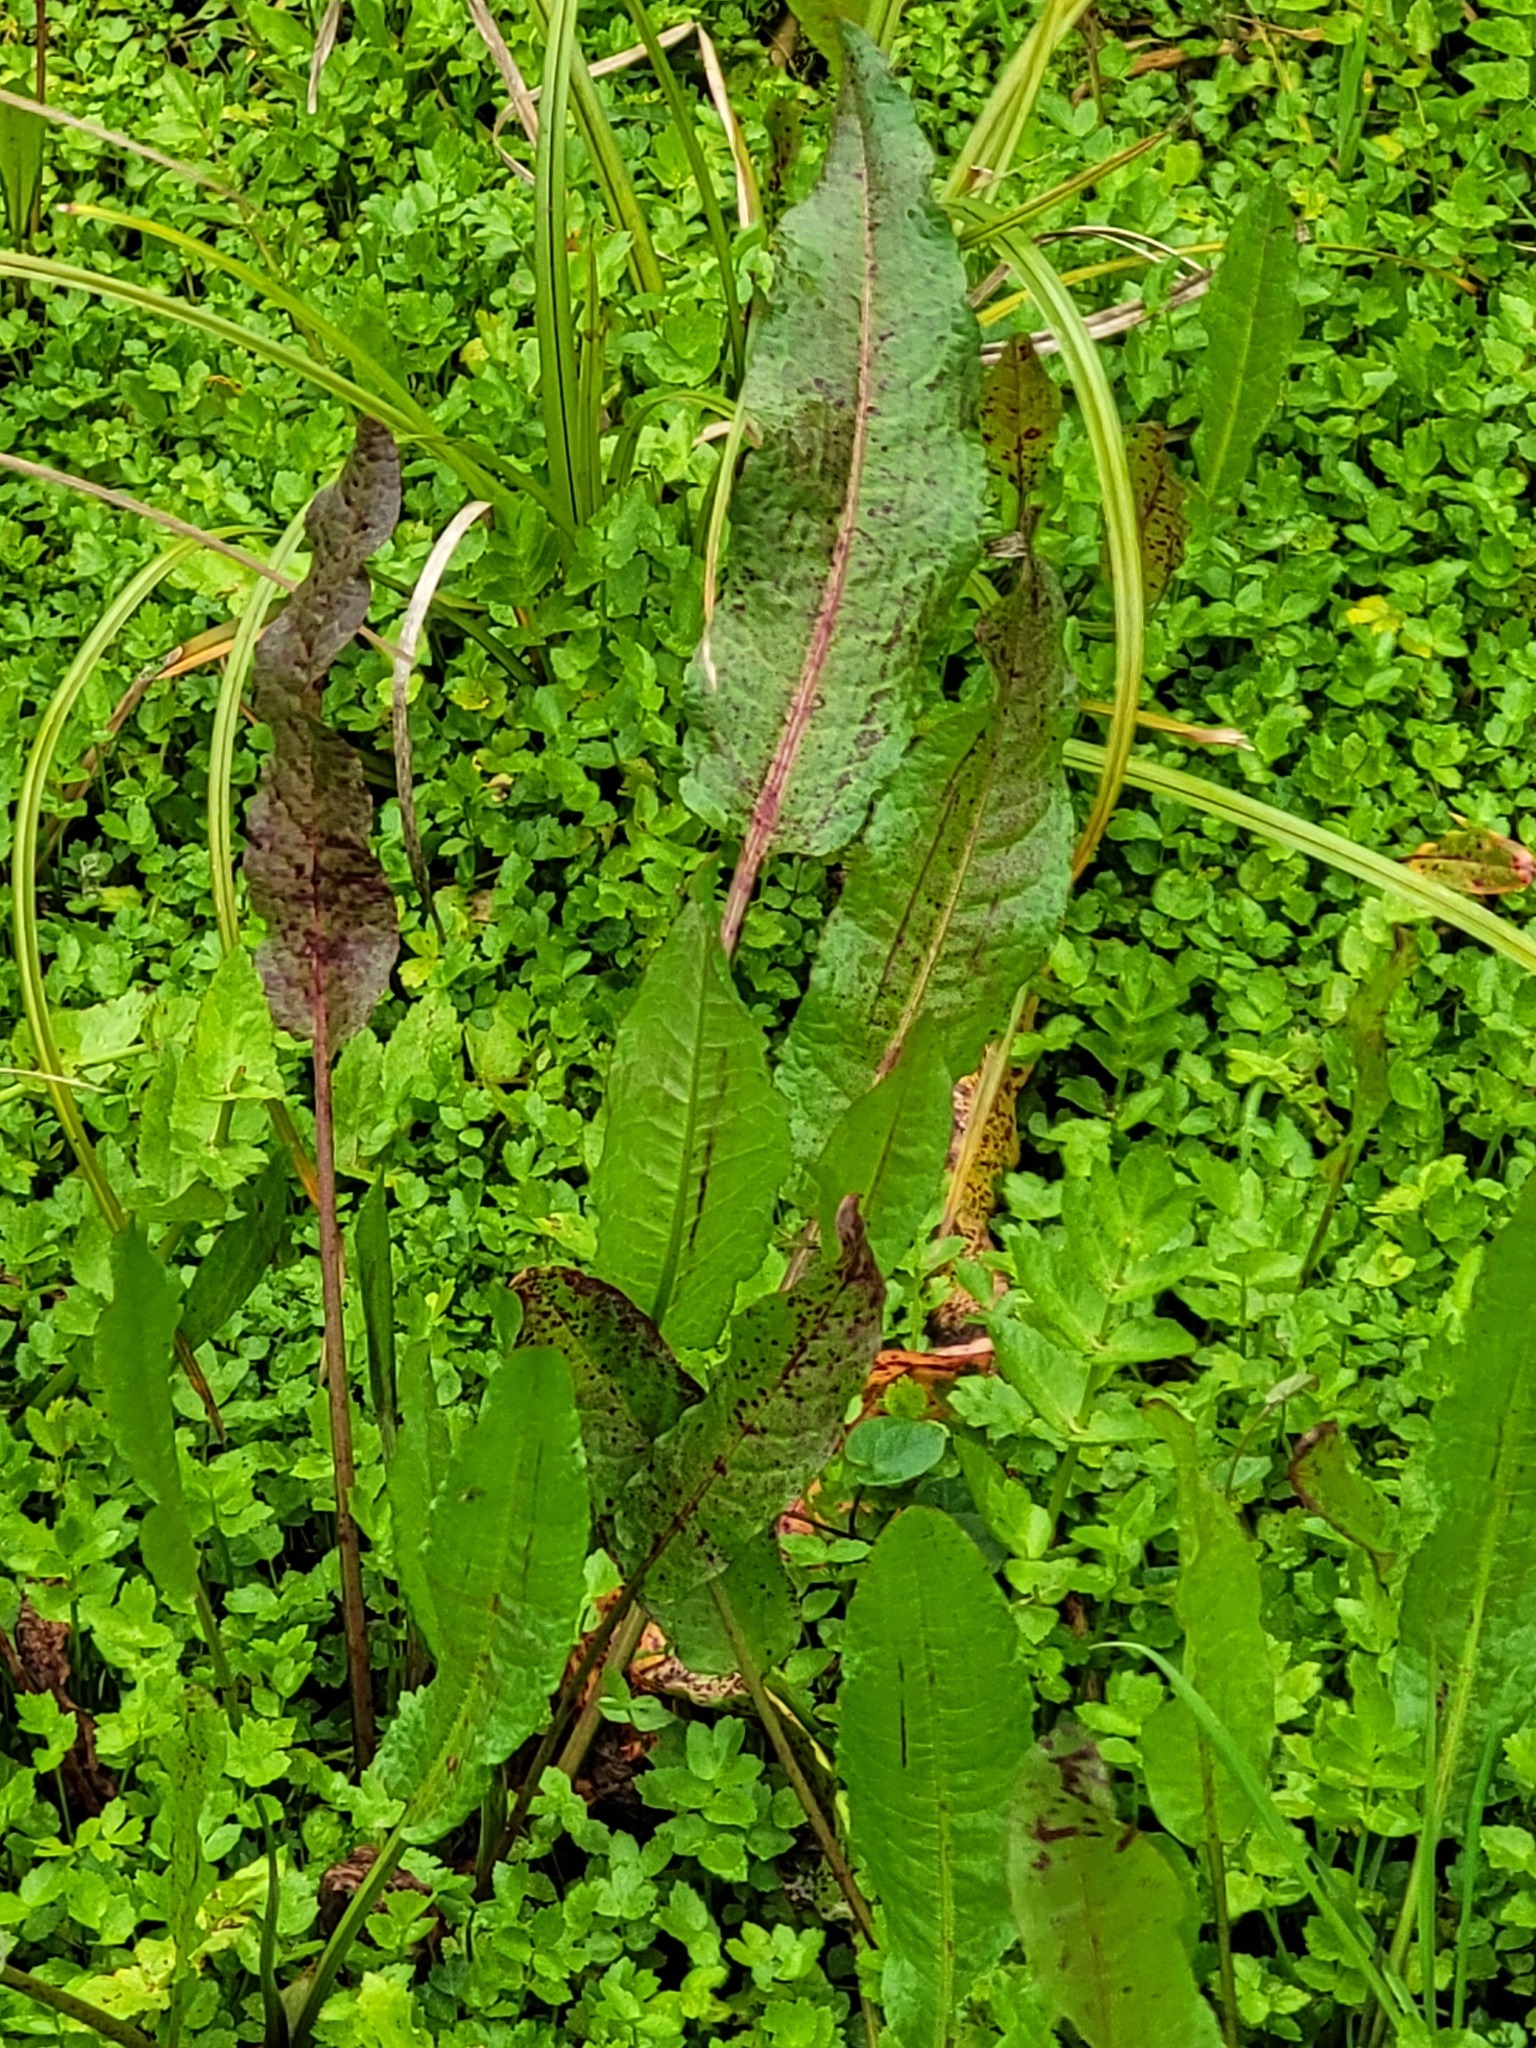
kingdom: Plantae
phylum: Tracheophyta
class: Magnoliopsida
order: Caryophyllales
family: Polygonaceae
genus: Rumex
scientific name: Rumex crispus
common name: Curled dock
